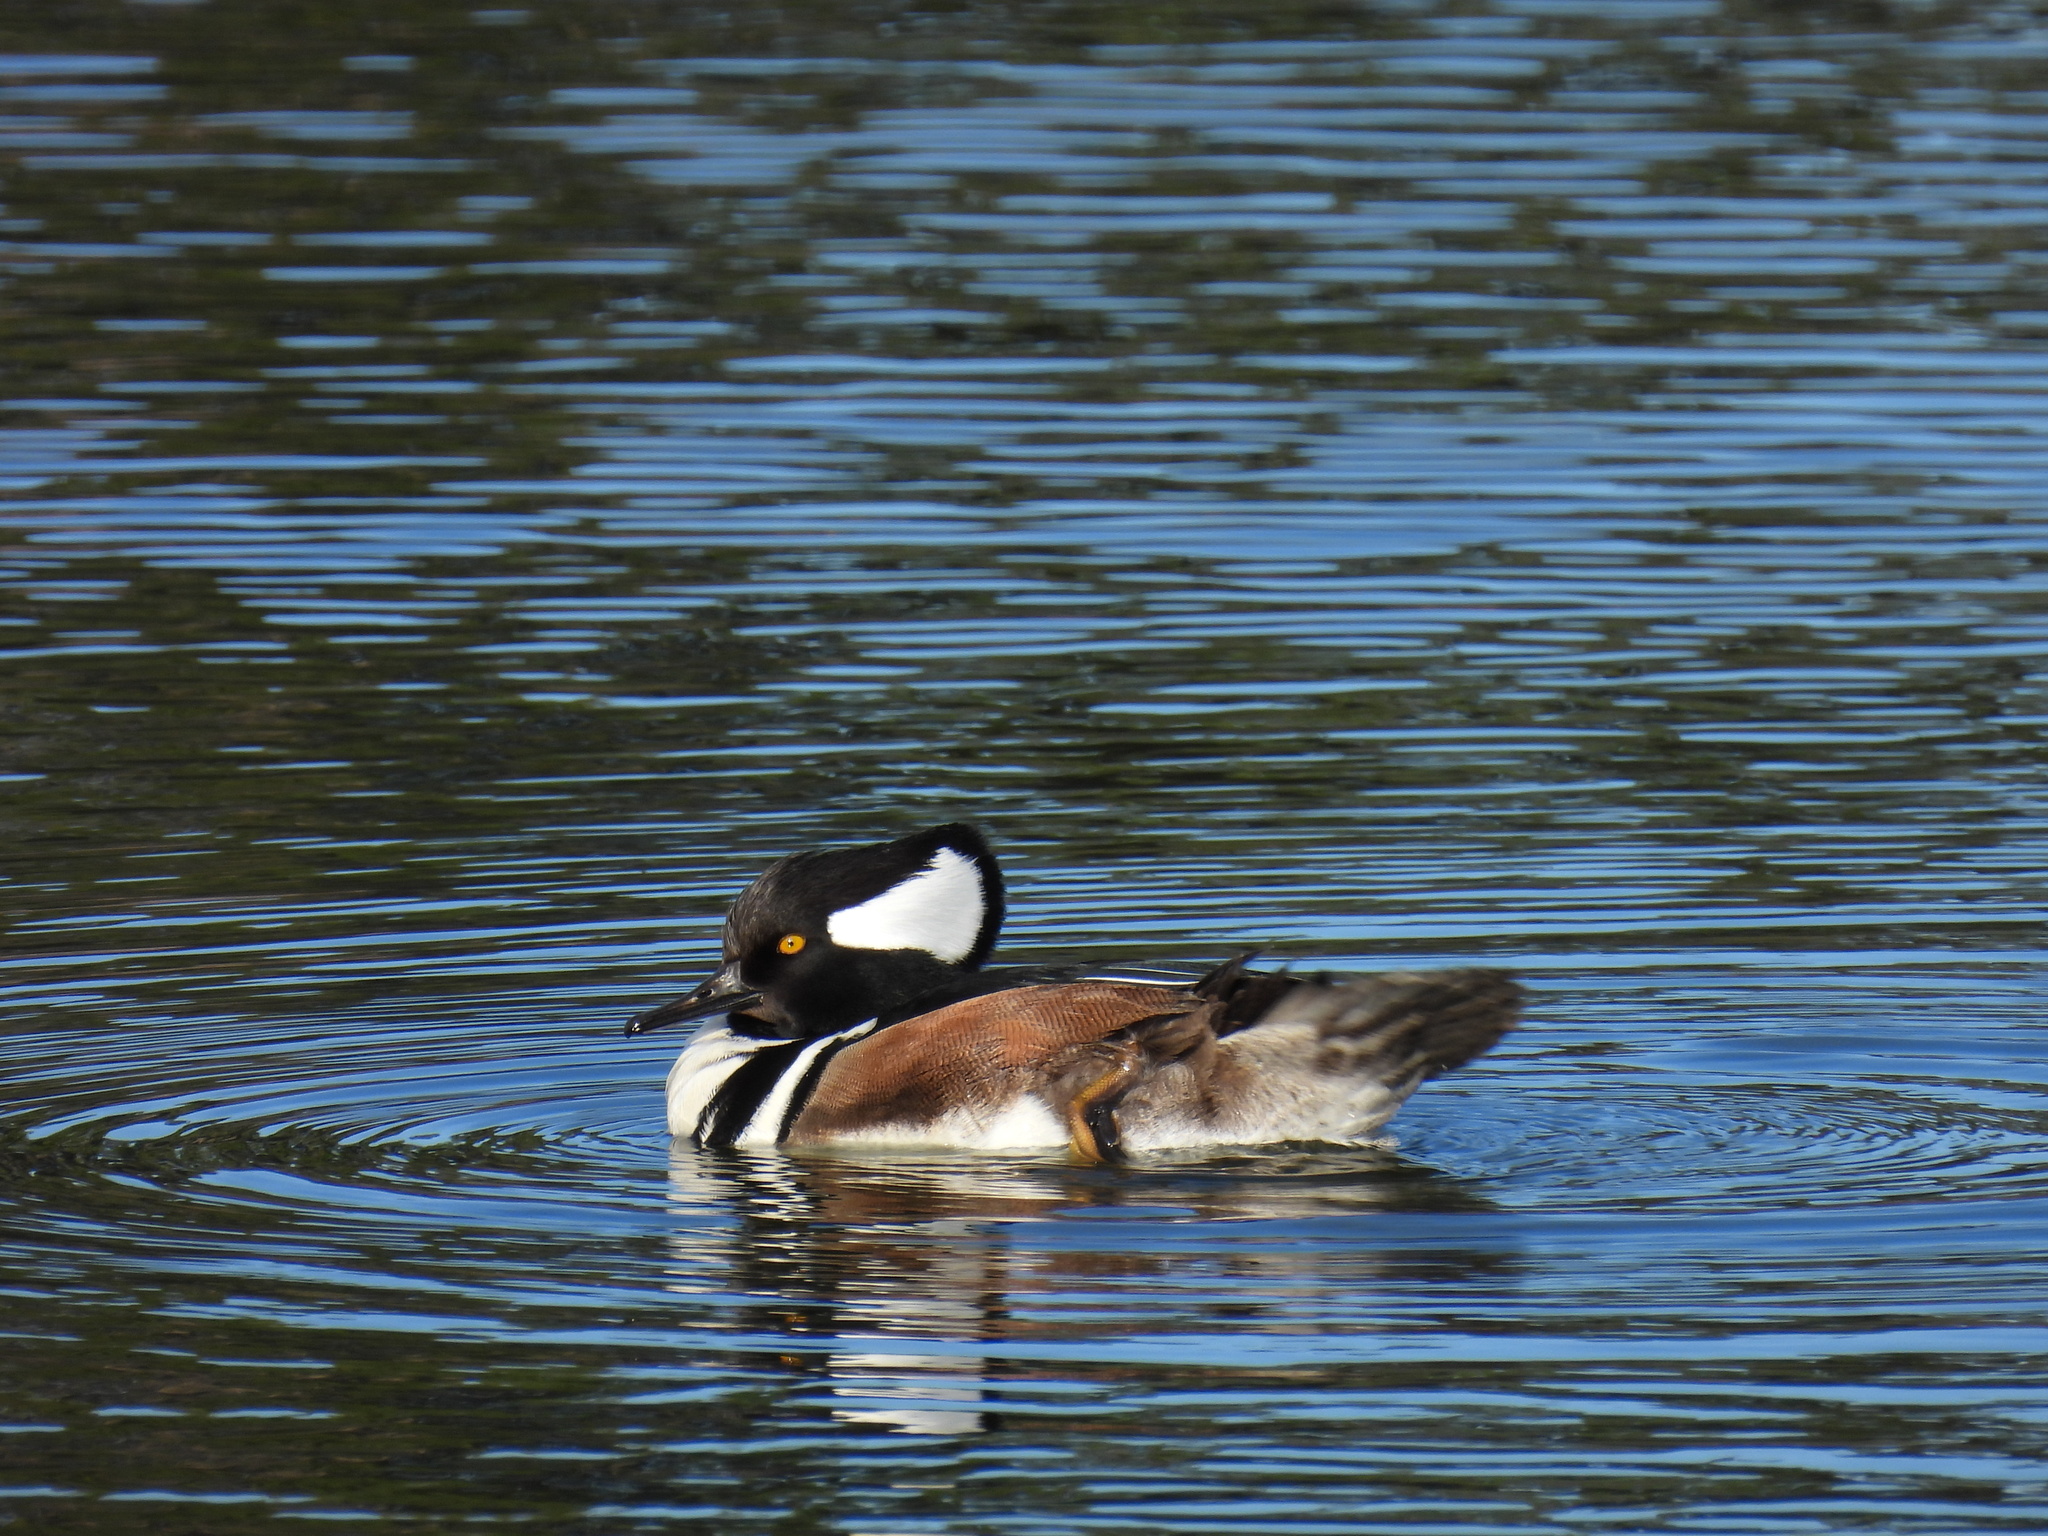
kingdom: Animalia
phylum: Chordata
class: Aves
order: Anseriformes
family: Anatidae
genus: Lophodytes
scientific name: Lophodytes cucullatus
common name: Hooded merganser
